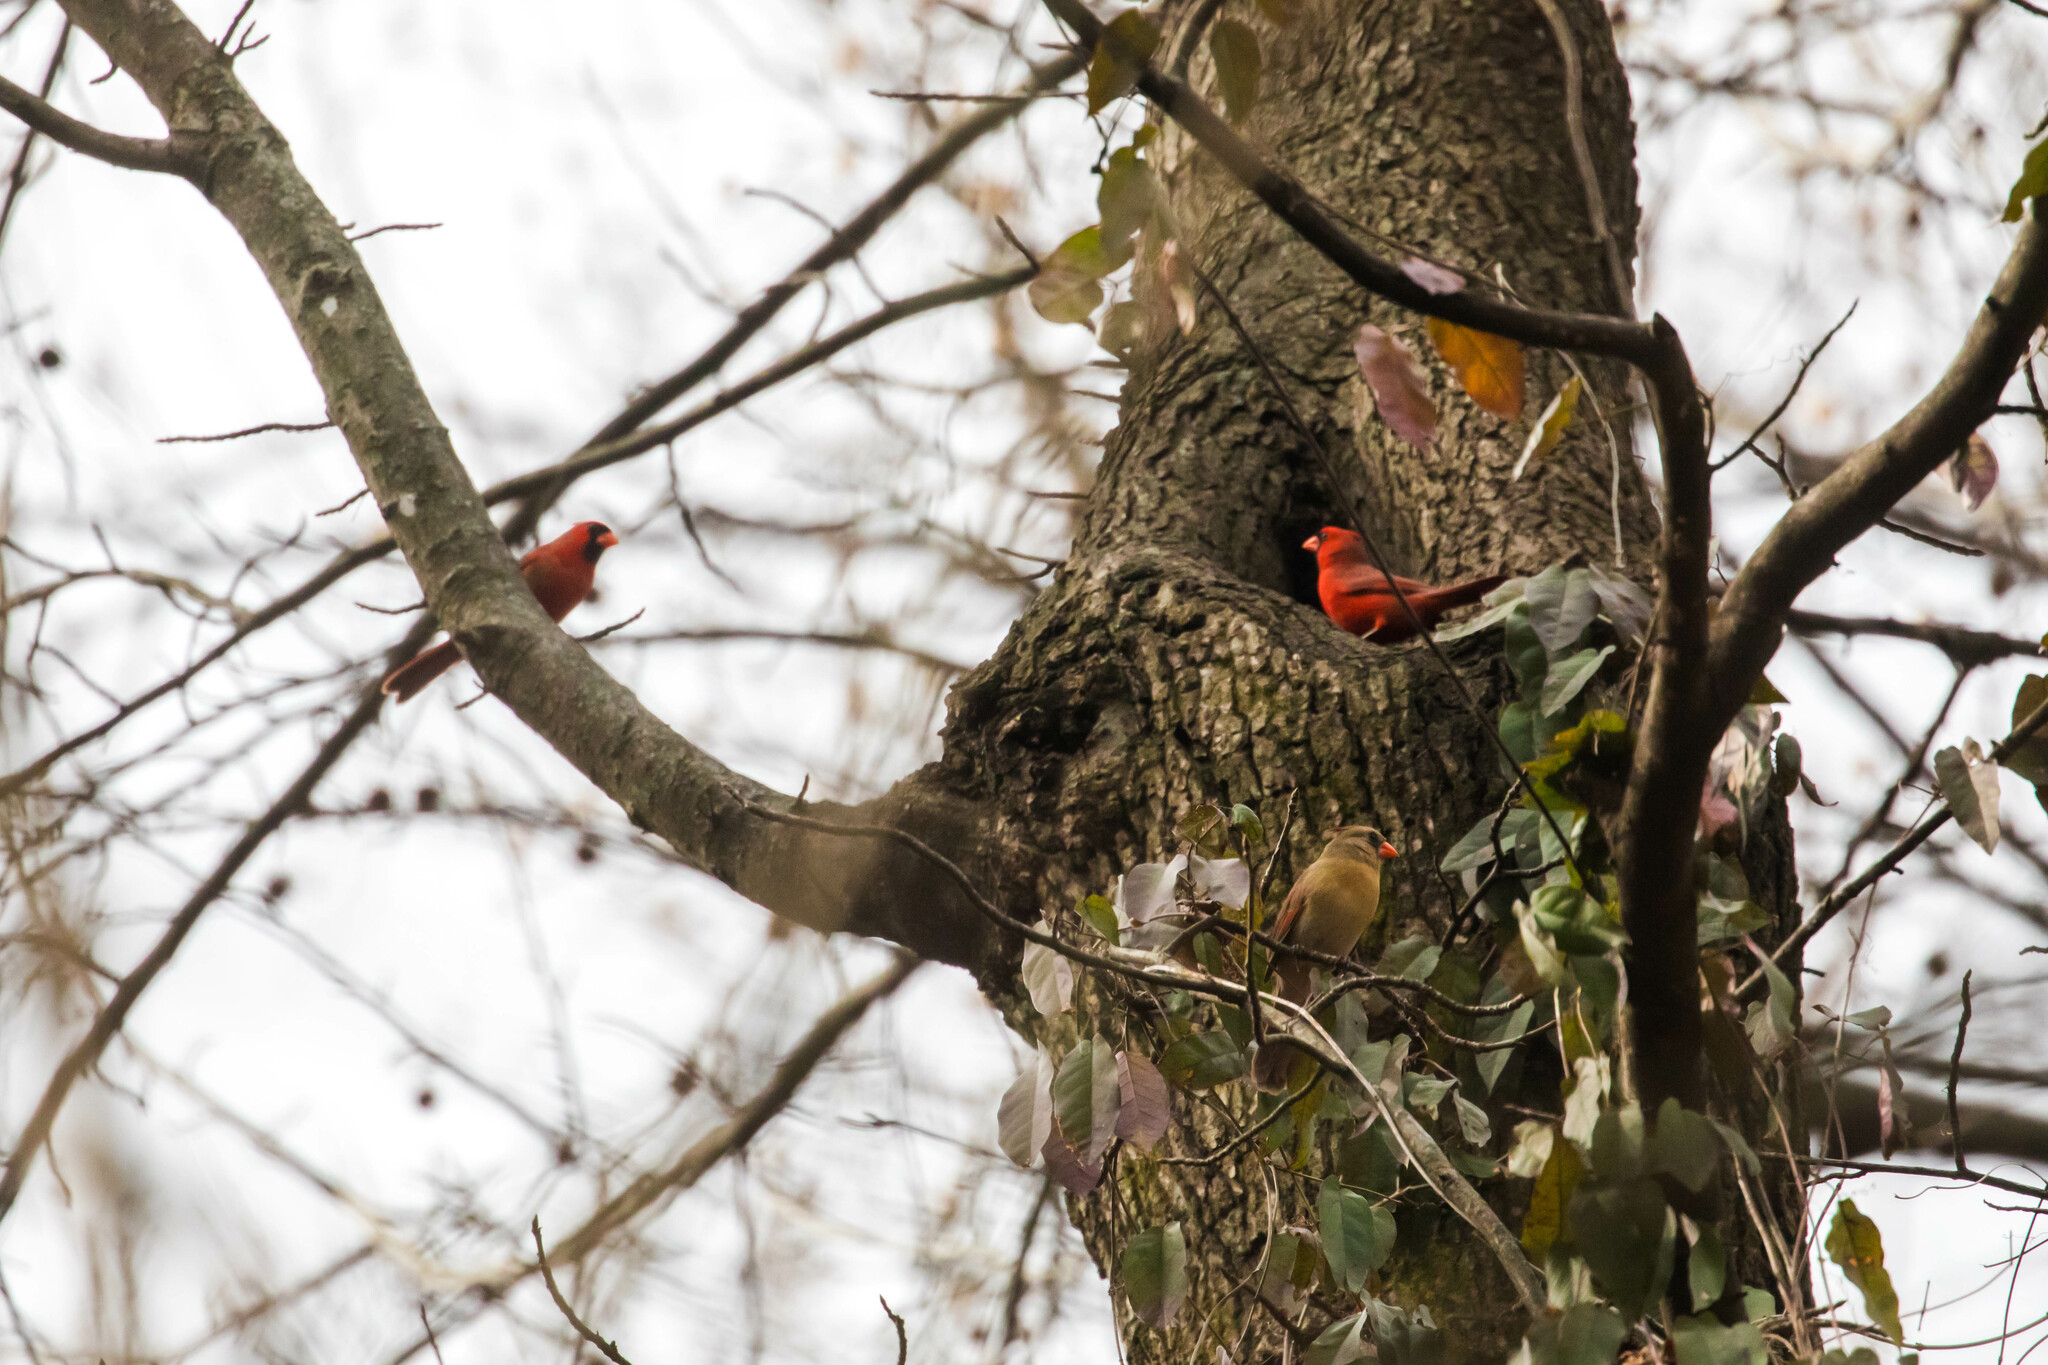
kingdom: Animalia
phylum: Chordata
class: Aves
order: Passeriformes
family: Cardinalidae
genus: Cardinalis
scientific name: Cardinalis cardinalis
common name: Northern cardinal
